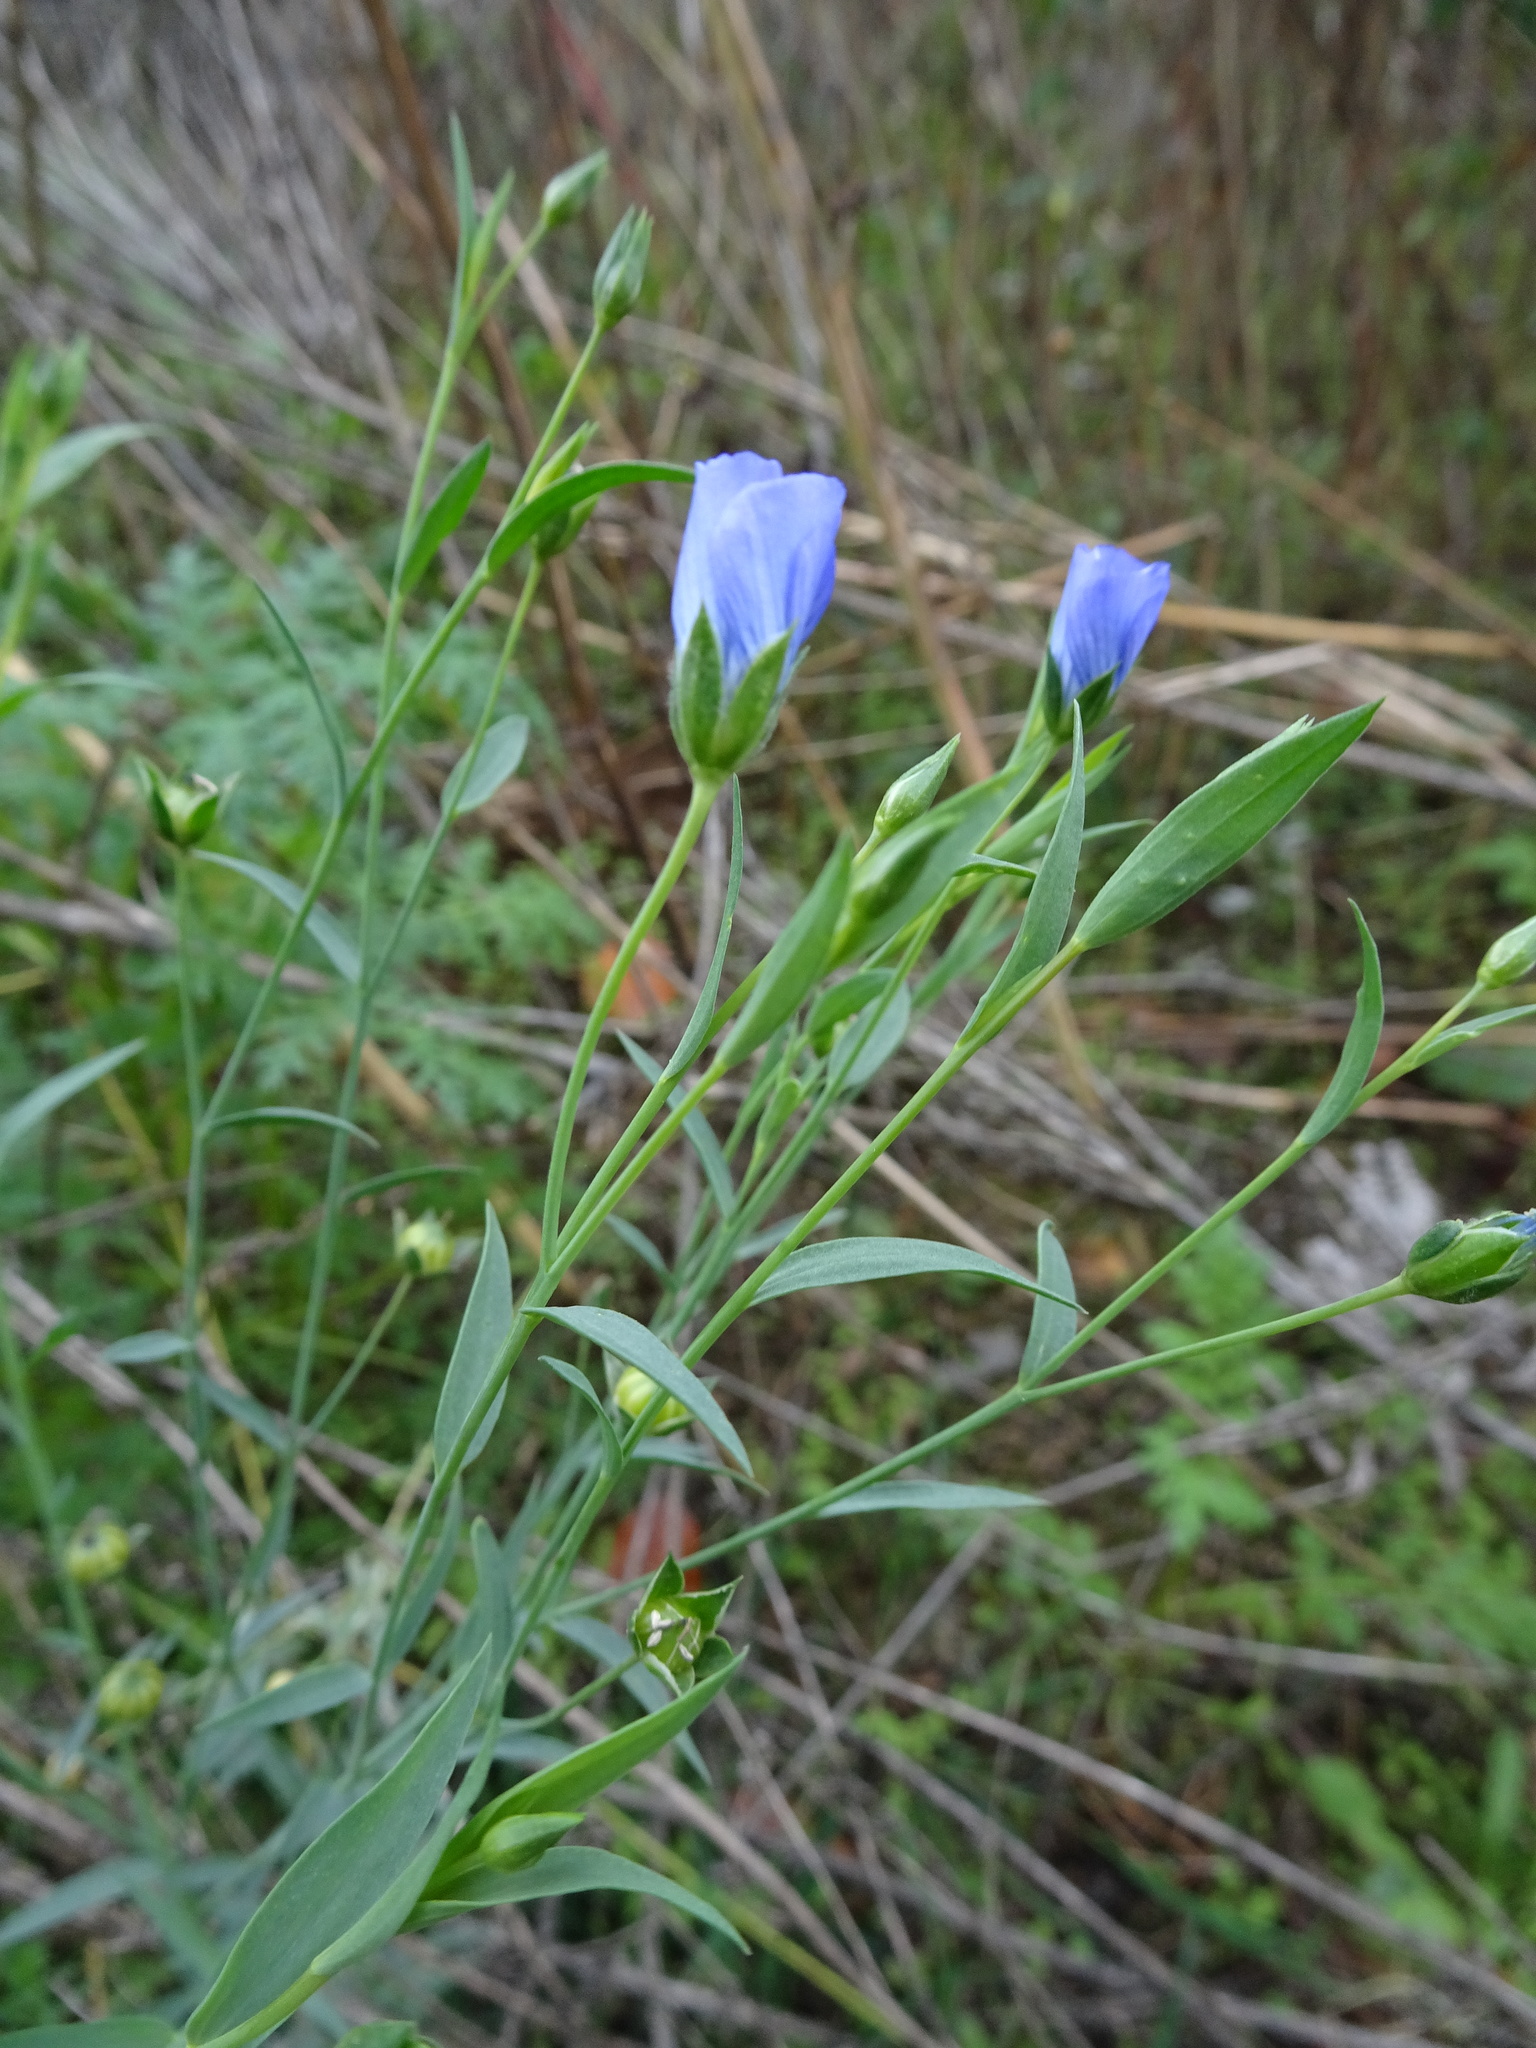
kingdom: Plantae
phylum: Tracheophyta
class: Magnoliopsida
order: Malpighiales
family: Linaceae
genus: Linum
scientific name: Linum usitatissimum
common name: Flax
